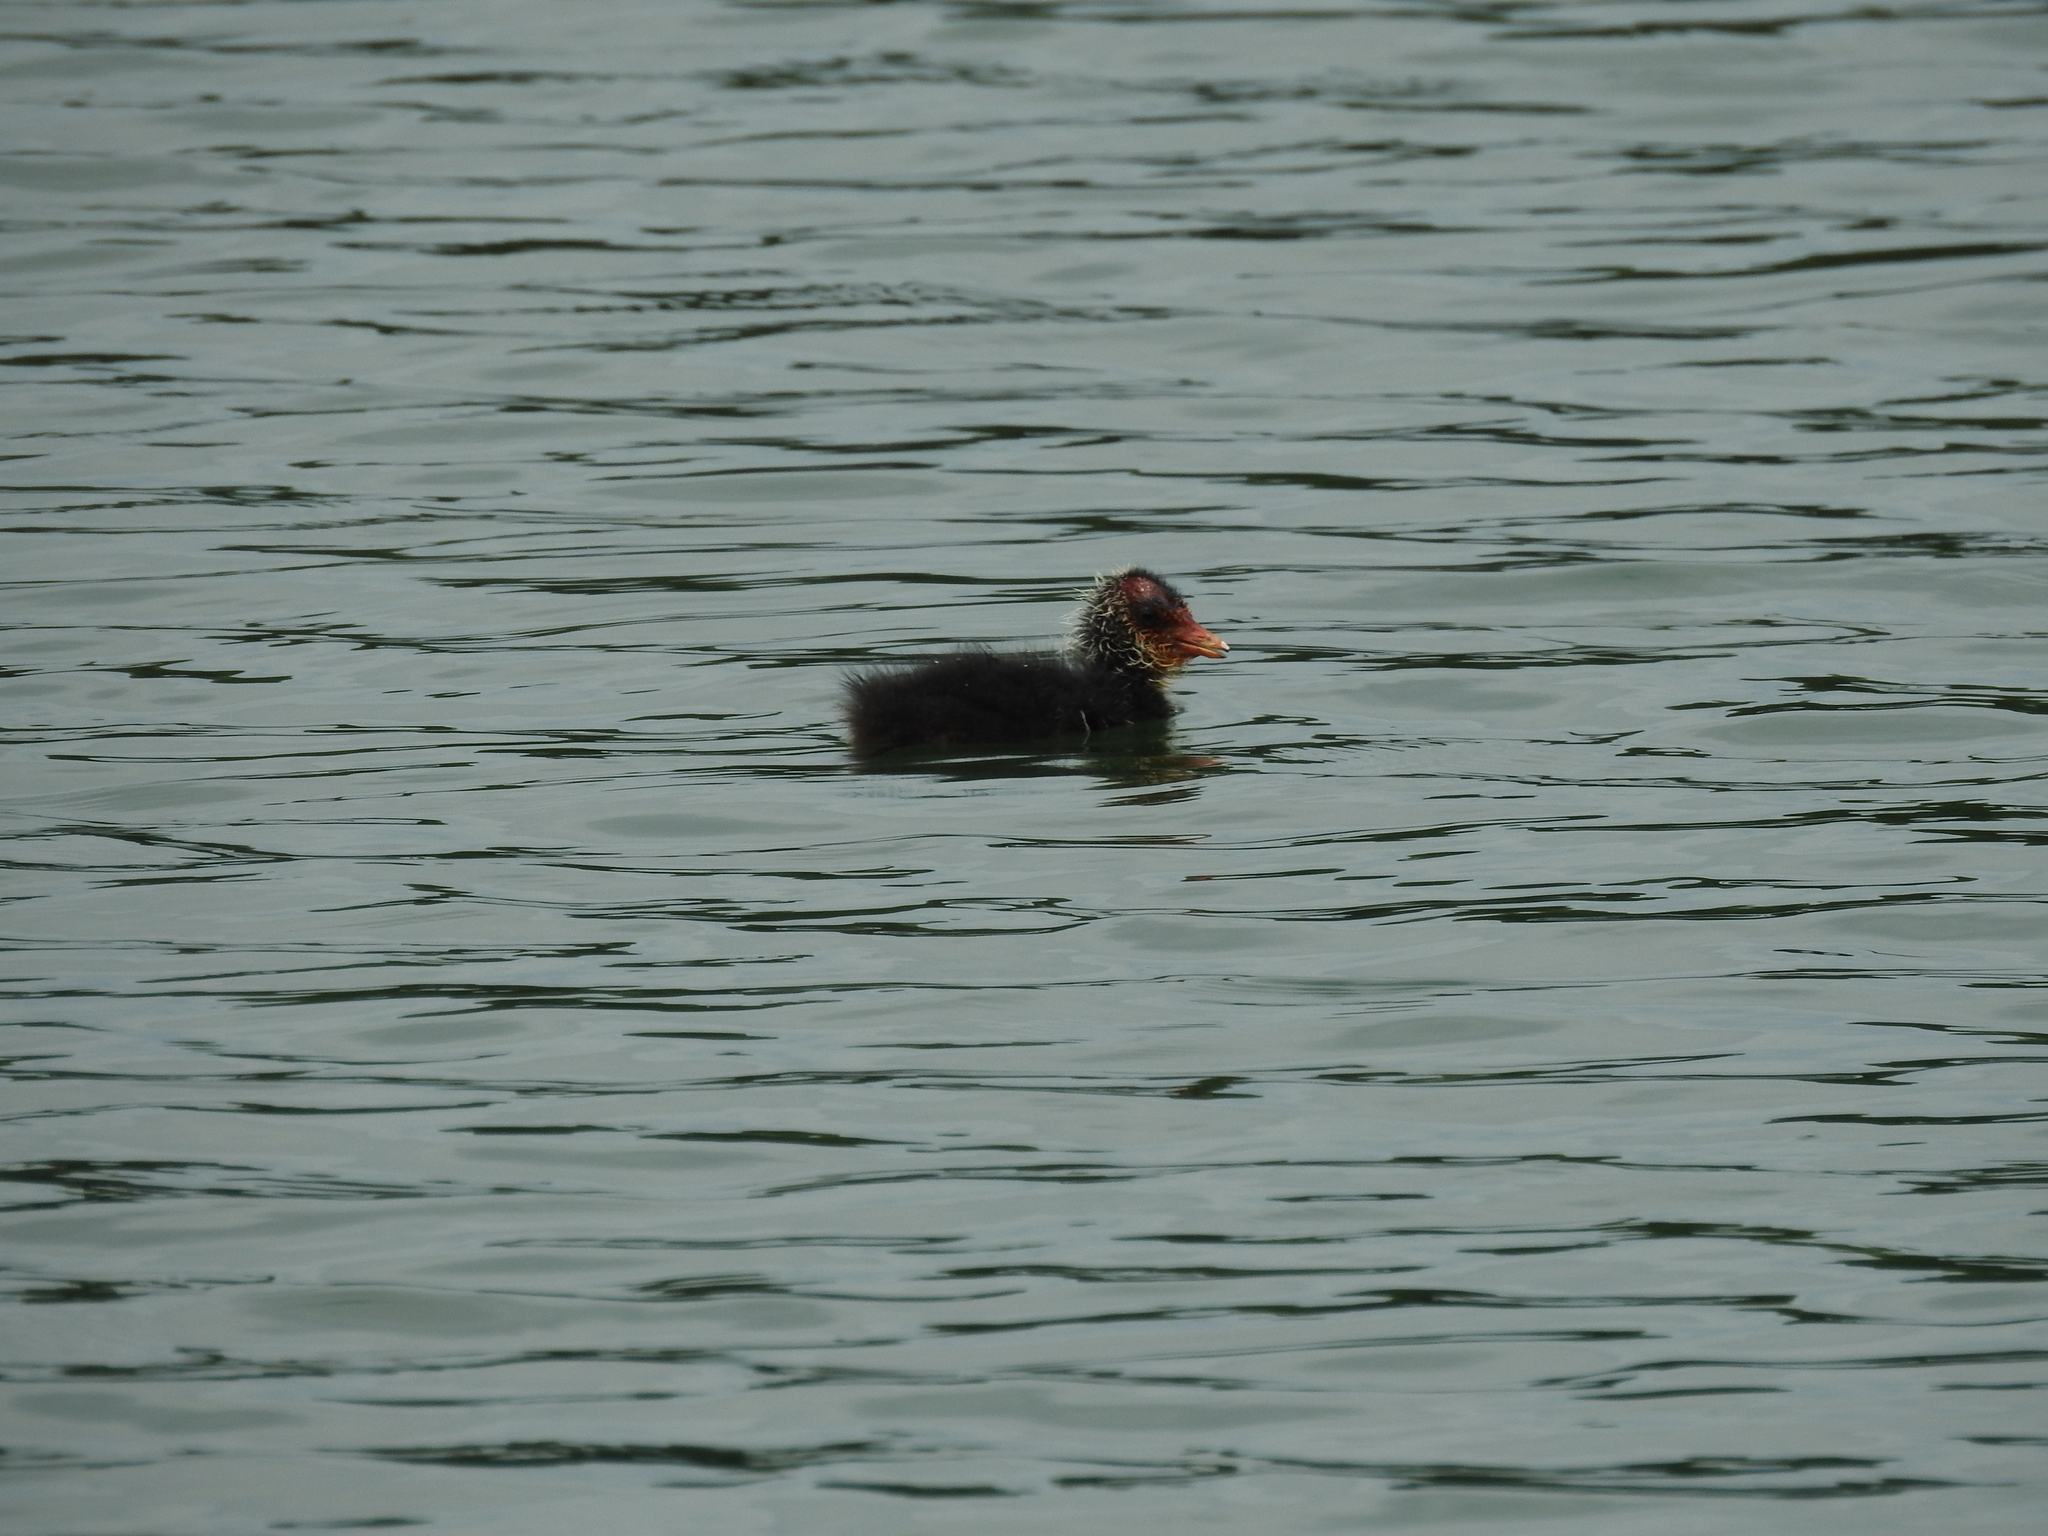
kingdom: Animalia
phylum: Chordata
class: Aves
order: Gruiformes
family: Rallidae
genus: Fulica
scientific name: Fulica atra
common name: Eurasian coot
